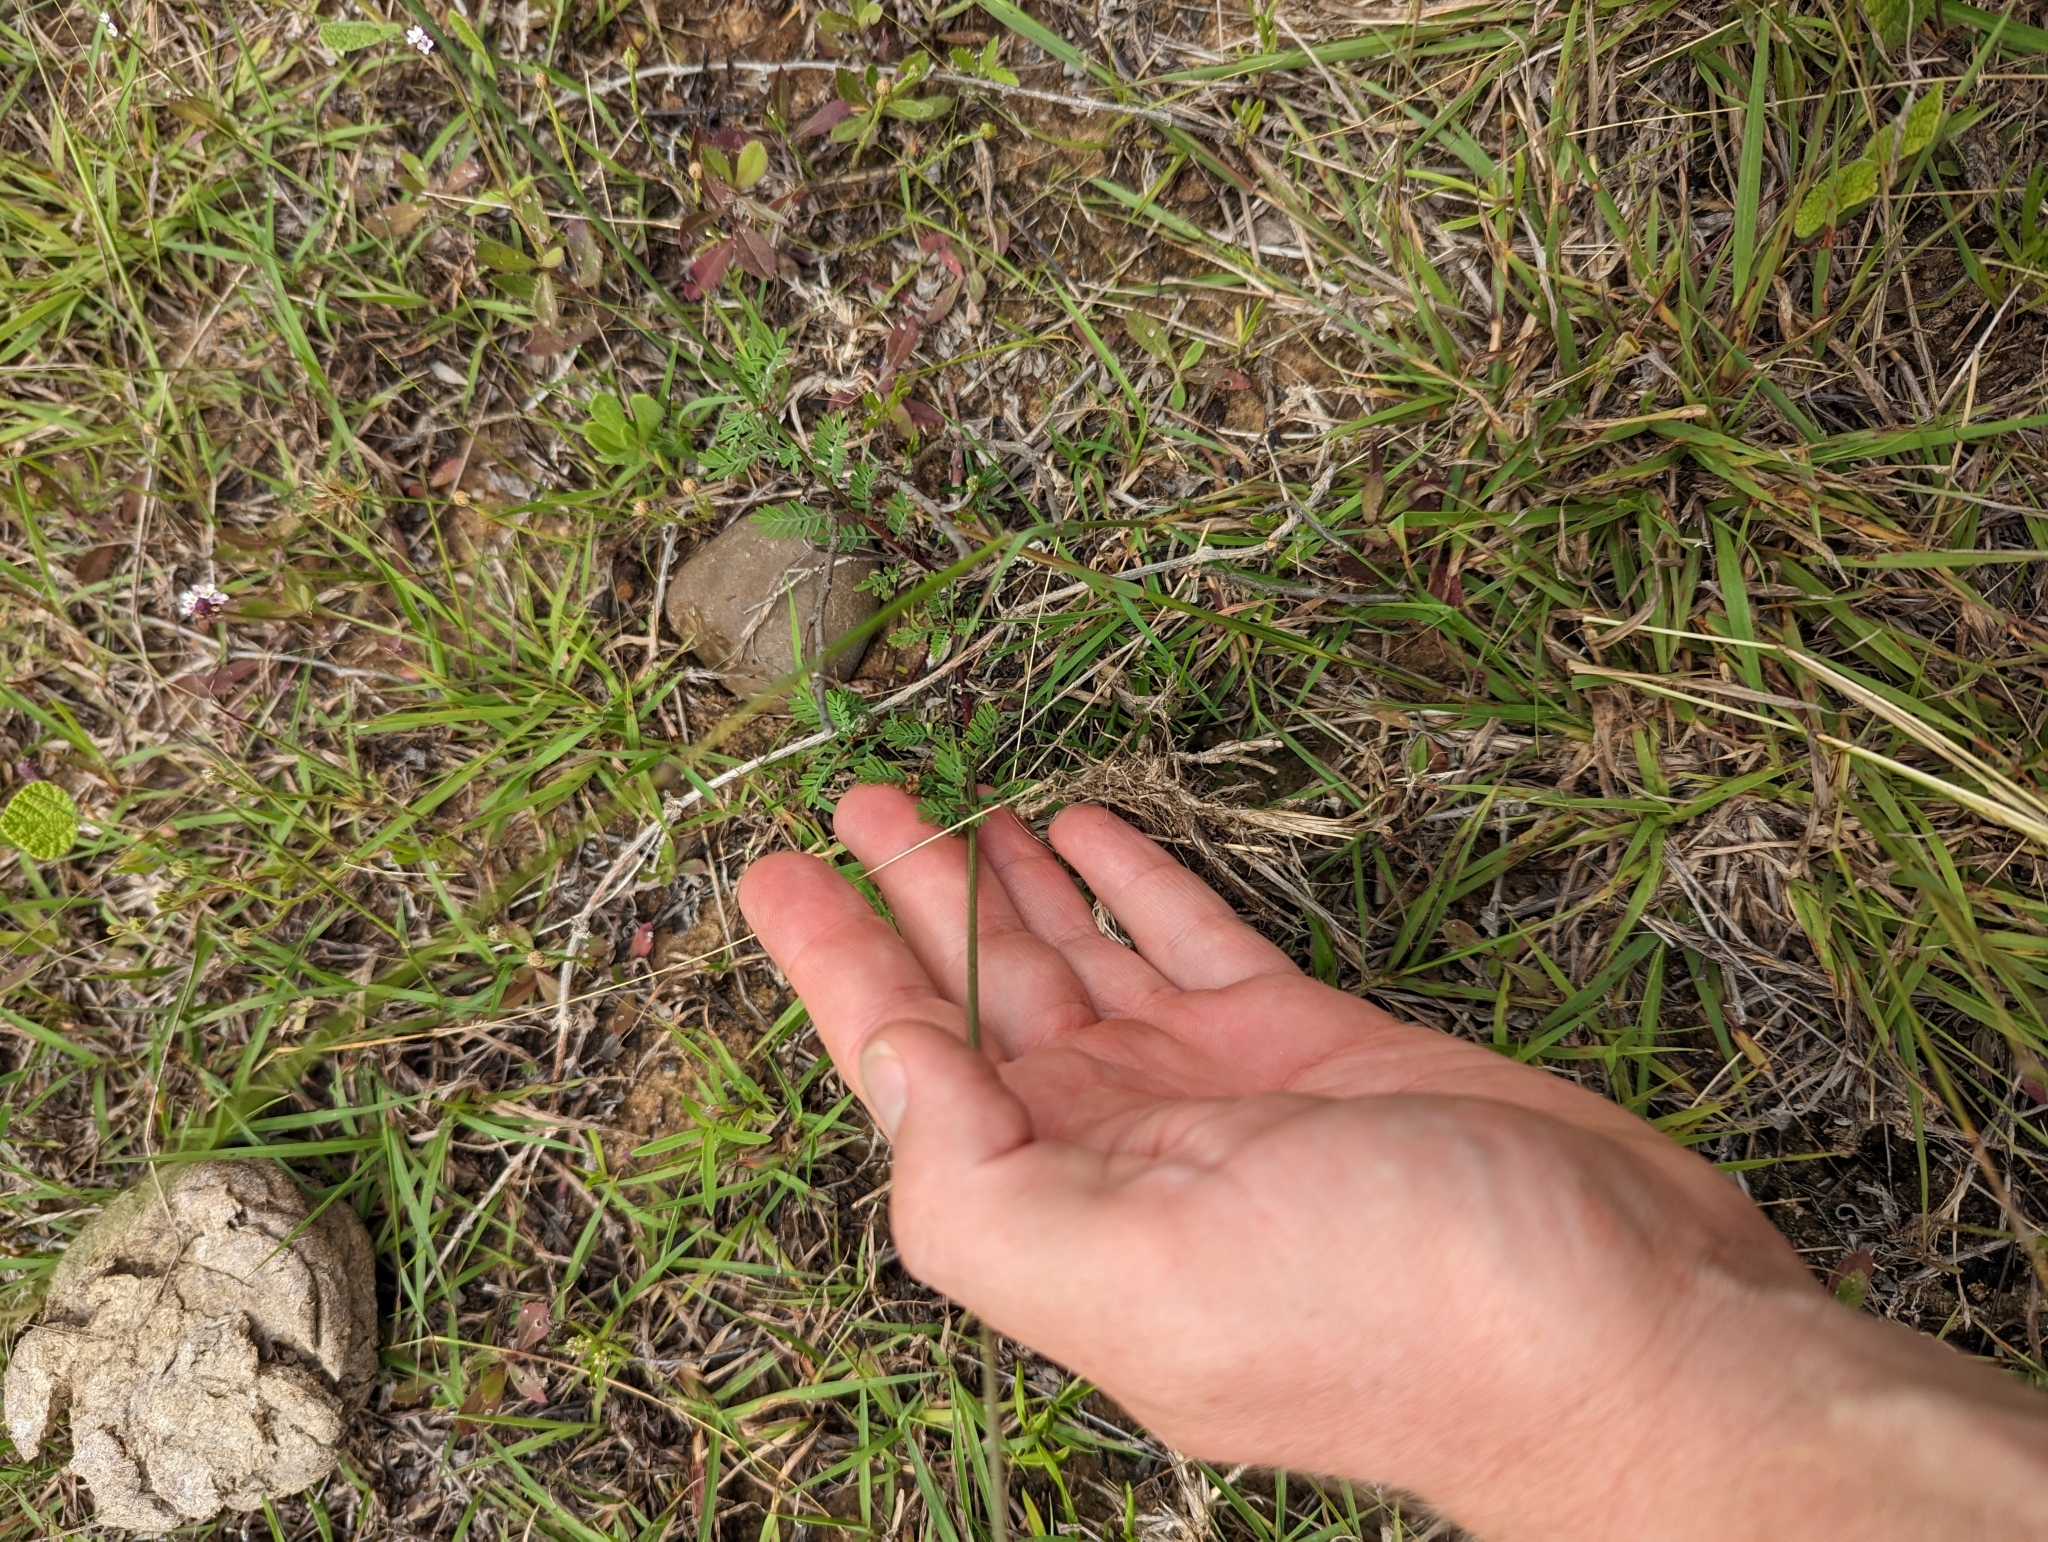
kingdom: Plantae
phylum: Tracheophyta
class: Magnoliopsida
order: Fabales
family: Fabaceae
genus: Dalea
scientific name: Dalea emarginata
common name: Wedgeleaf prairie clover
